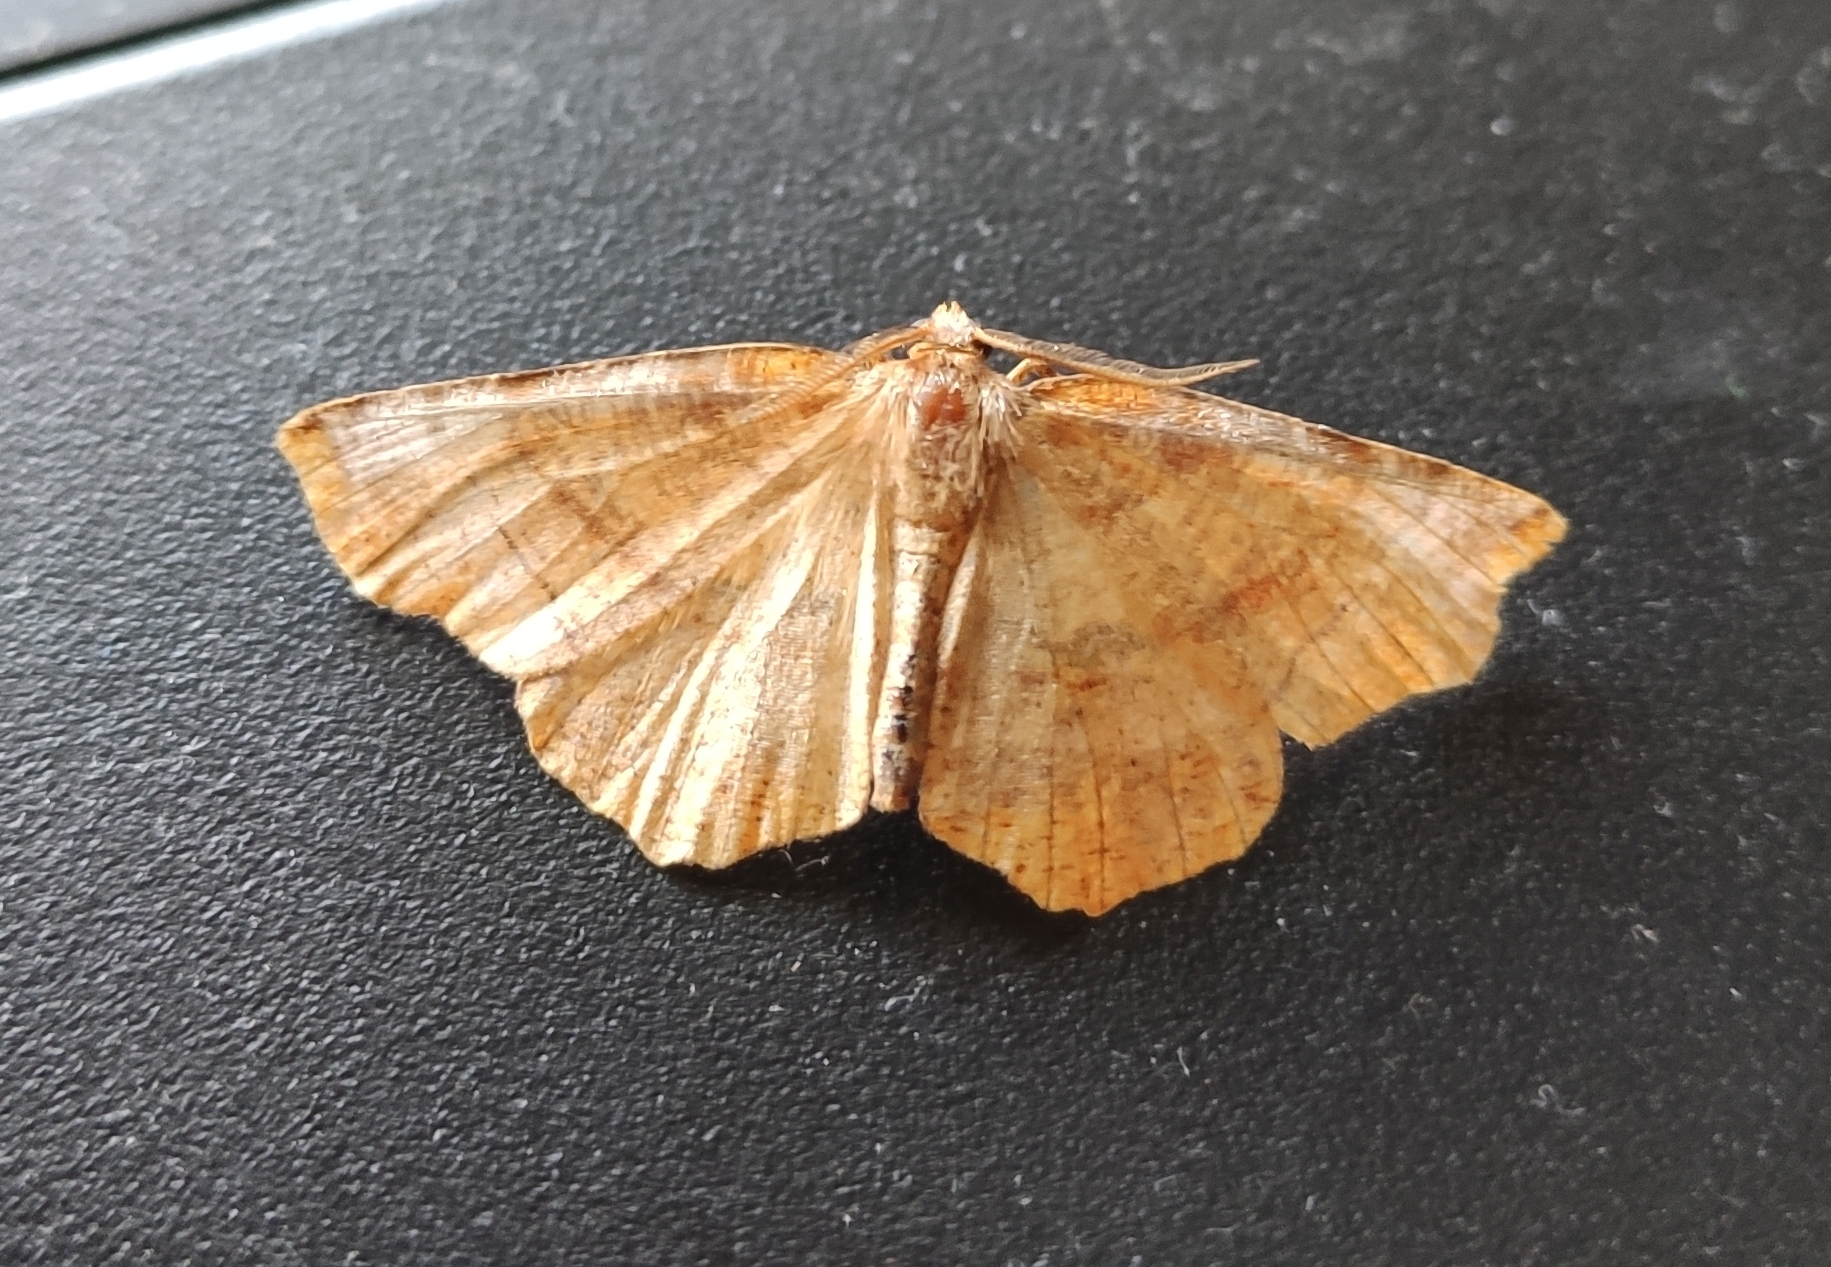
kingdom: Animalia
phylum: Arthropoda
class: Insecta
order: Lepidoptera
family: Geometridae
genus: Selenia
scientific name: Selenia dentaria
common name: Early thorn
